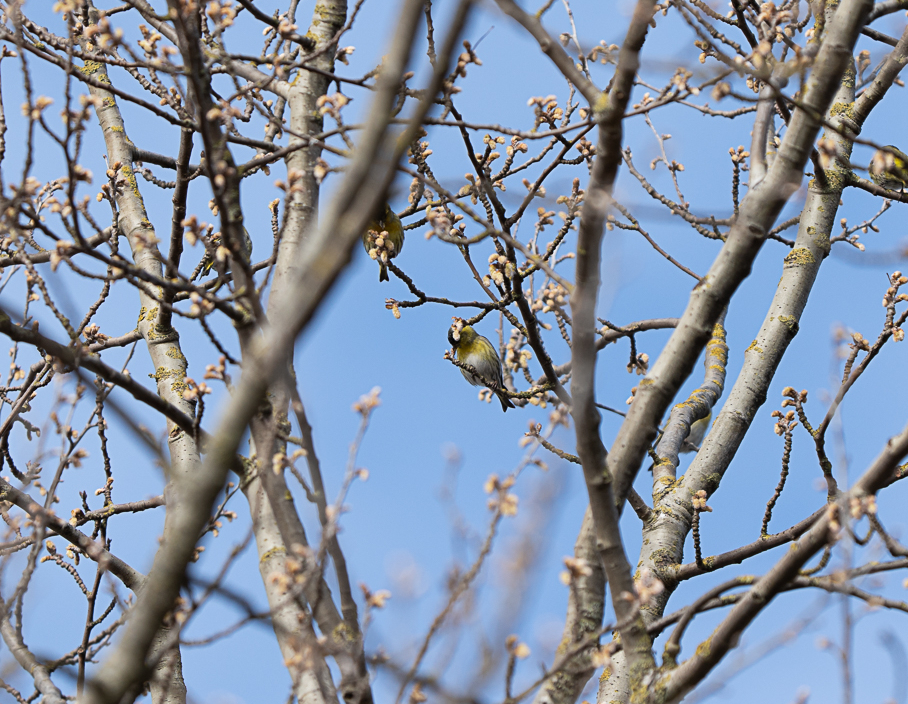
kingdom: Animalia
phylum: Chordata
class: Aves
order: Passeriformes
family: Fringillidae
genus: Spinus
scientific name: Spinus spinus
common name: Eurasian siskin
